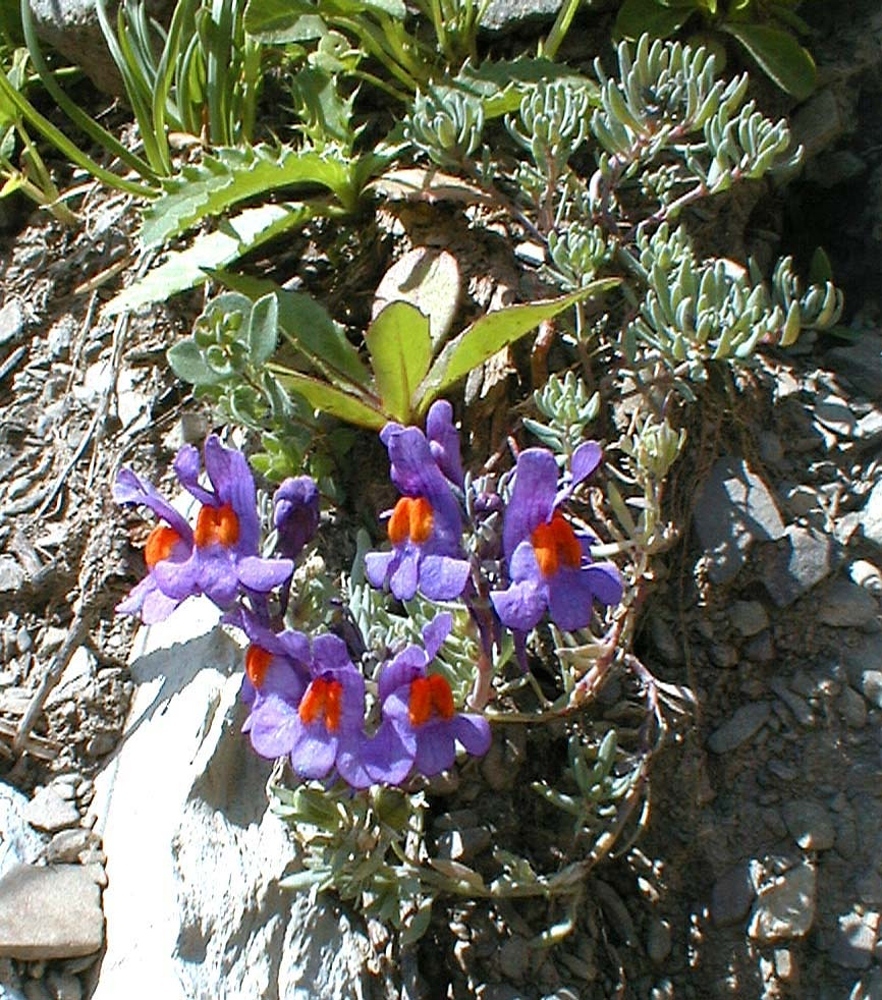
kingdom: Plantae
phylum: Tracheophyta
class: Magnoliopsida
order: Lamiales
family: Plantaginaceae
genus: Linaria
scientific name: Linaria alpina
